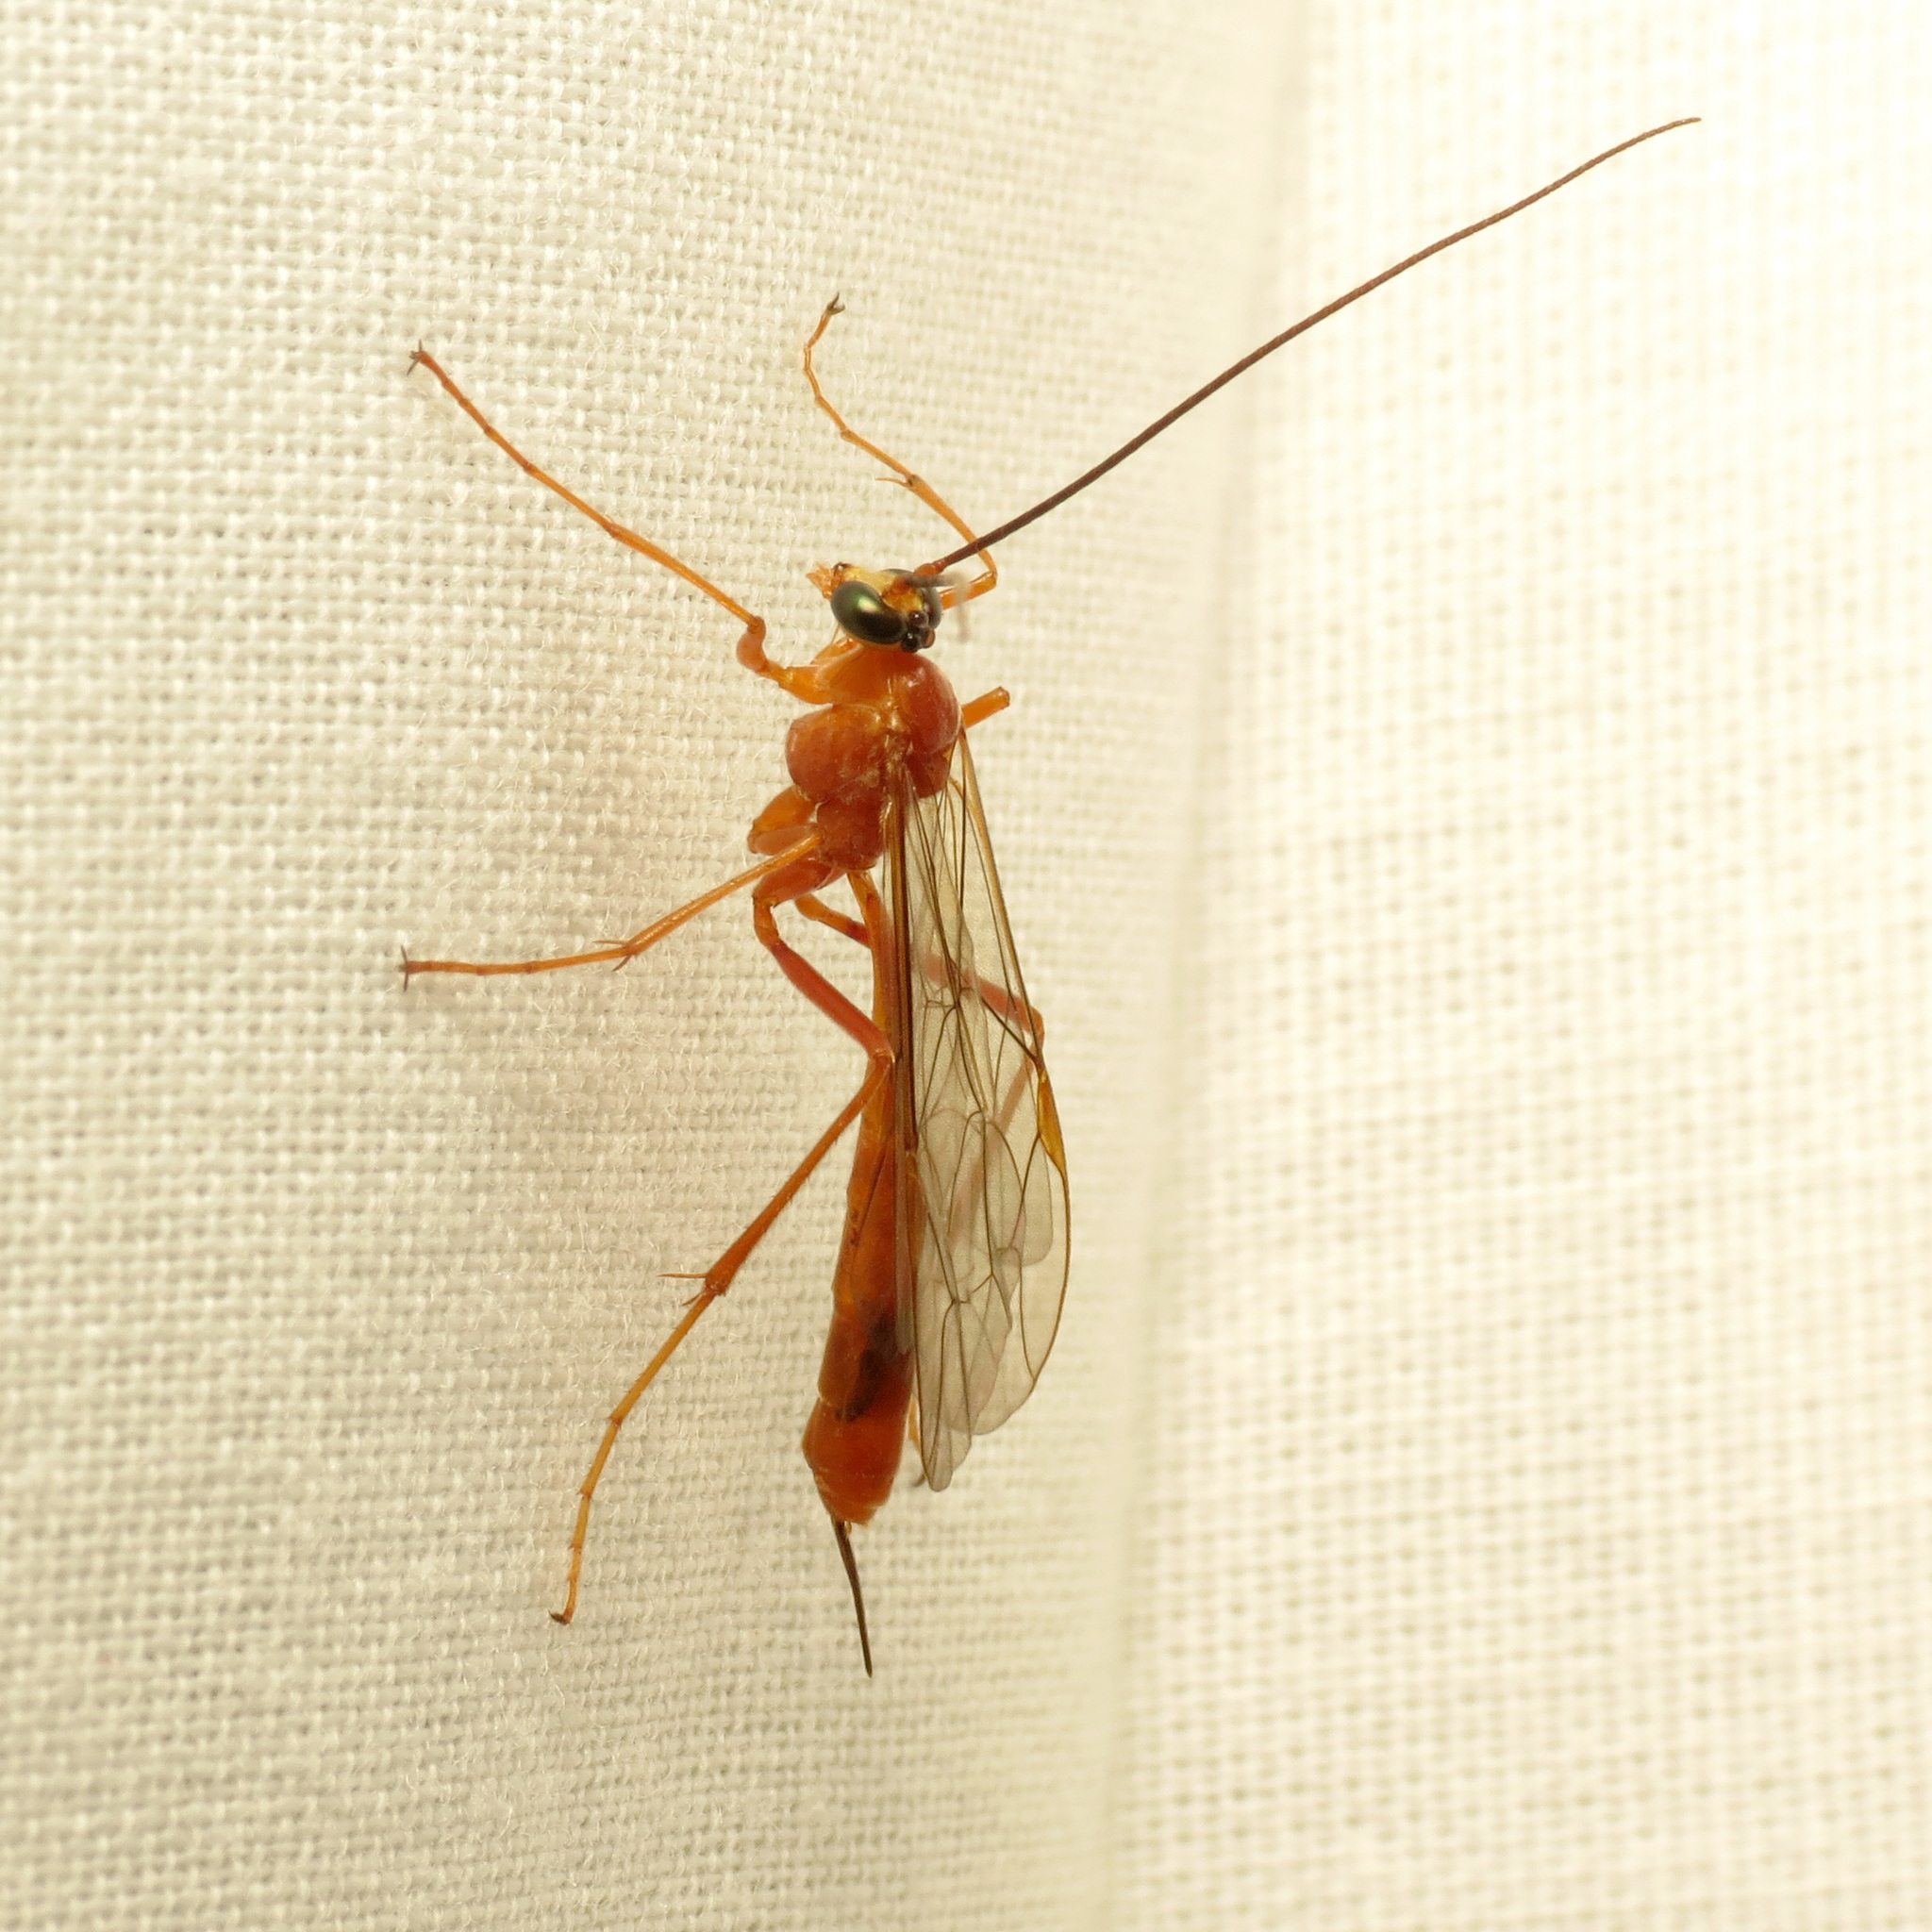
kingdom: Animalia
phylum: Arthropoda
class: Insecta
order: Hymenoptera
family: Ichneumonidae
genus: Netelia
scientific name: Netelia
